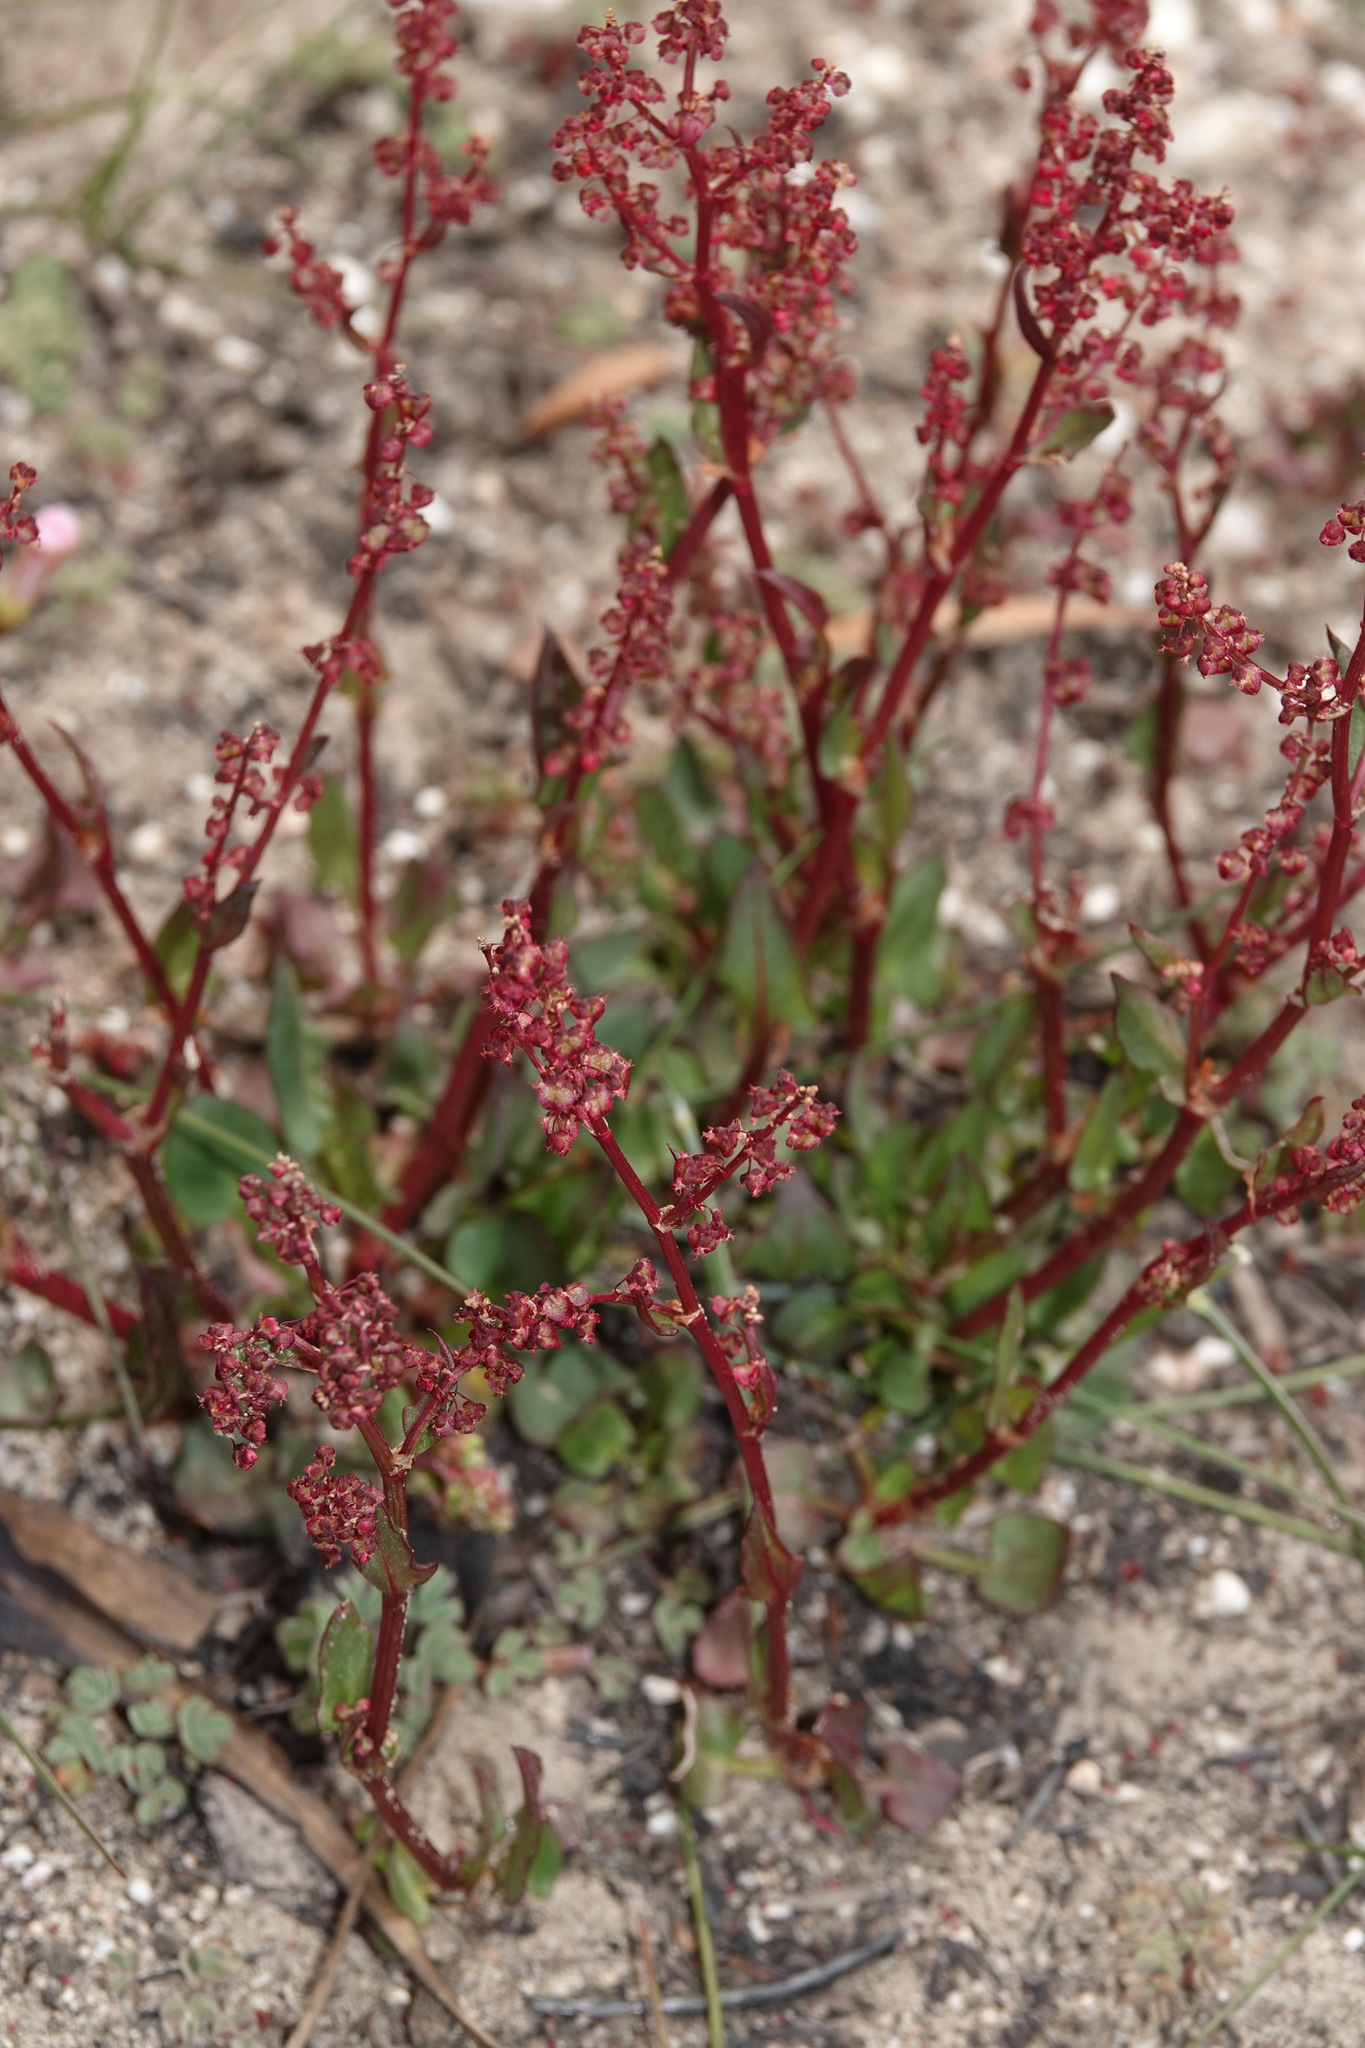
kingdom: Plantae
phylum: Tracheophyta
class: Magnoliopsida
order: Caryophyllales
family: Polygonaceae
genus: Rumex
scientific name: Rumex acetosella
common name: Common sheep sorrel
